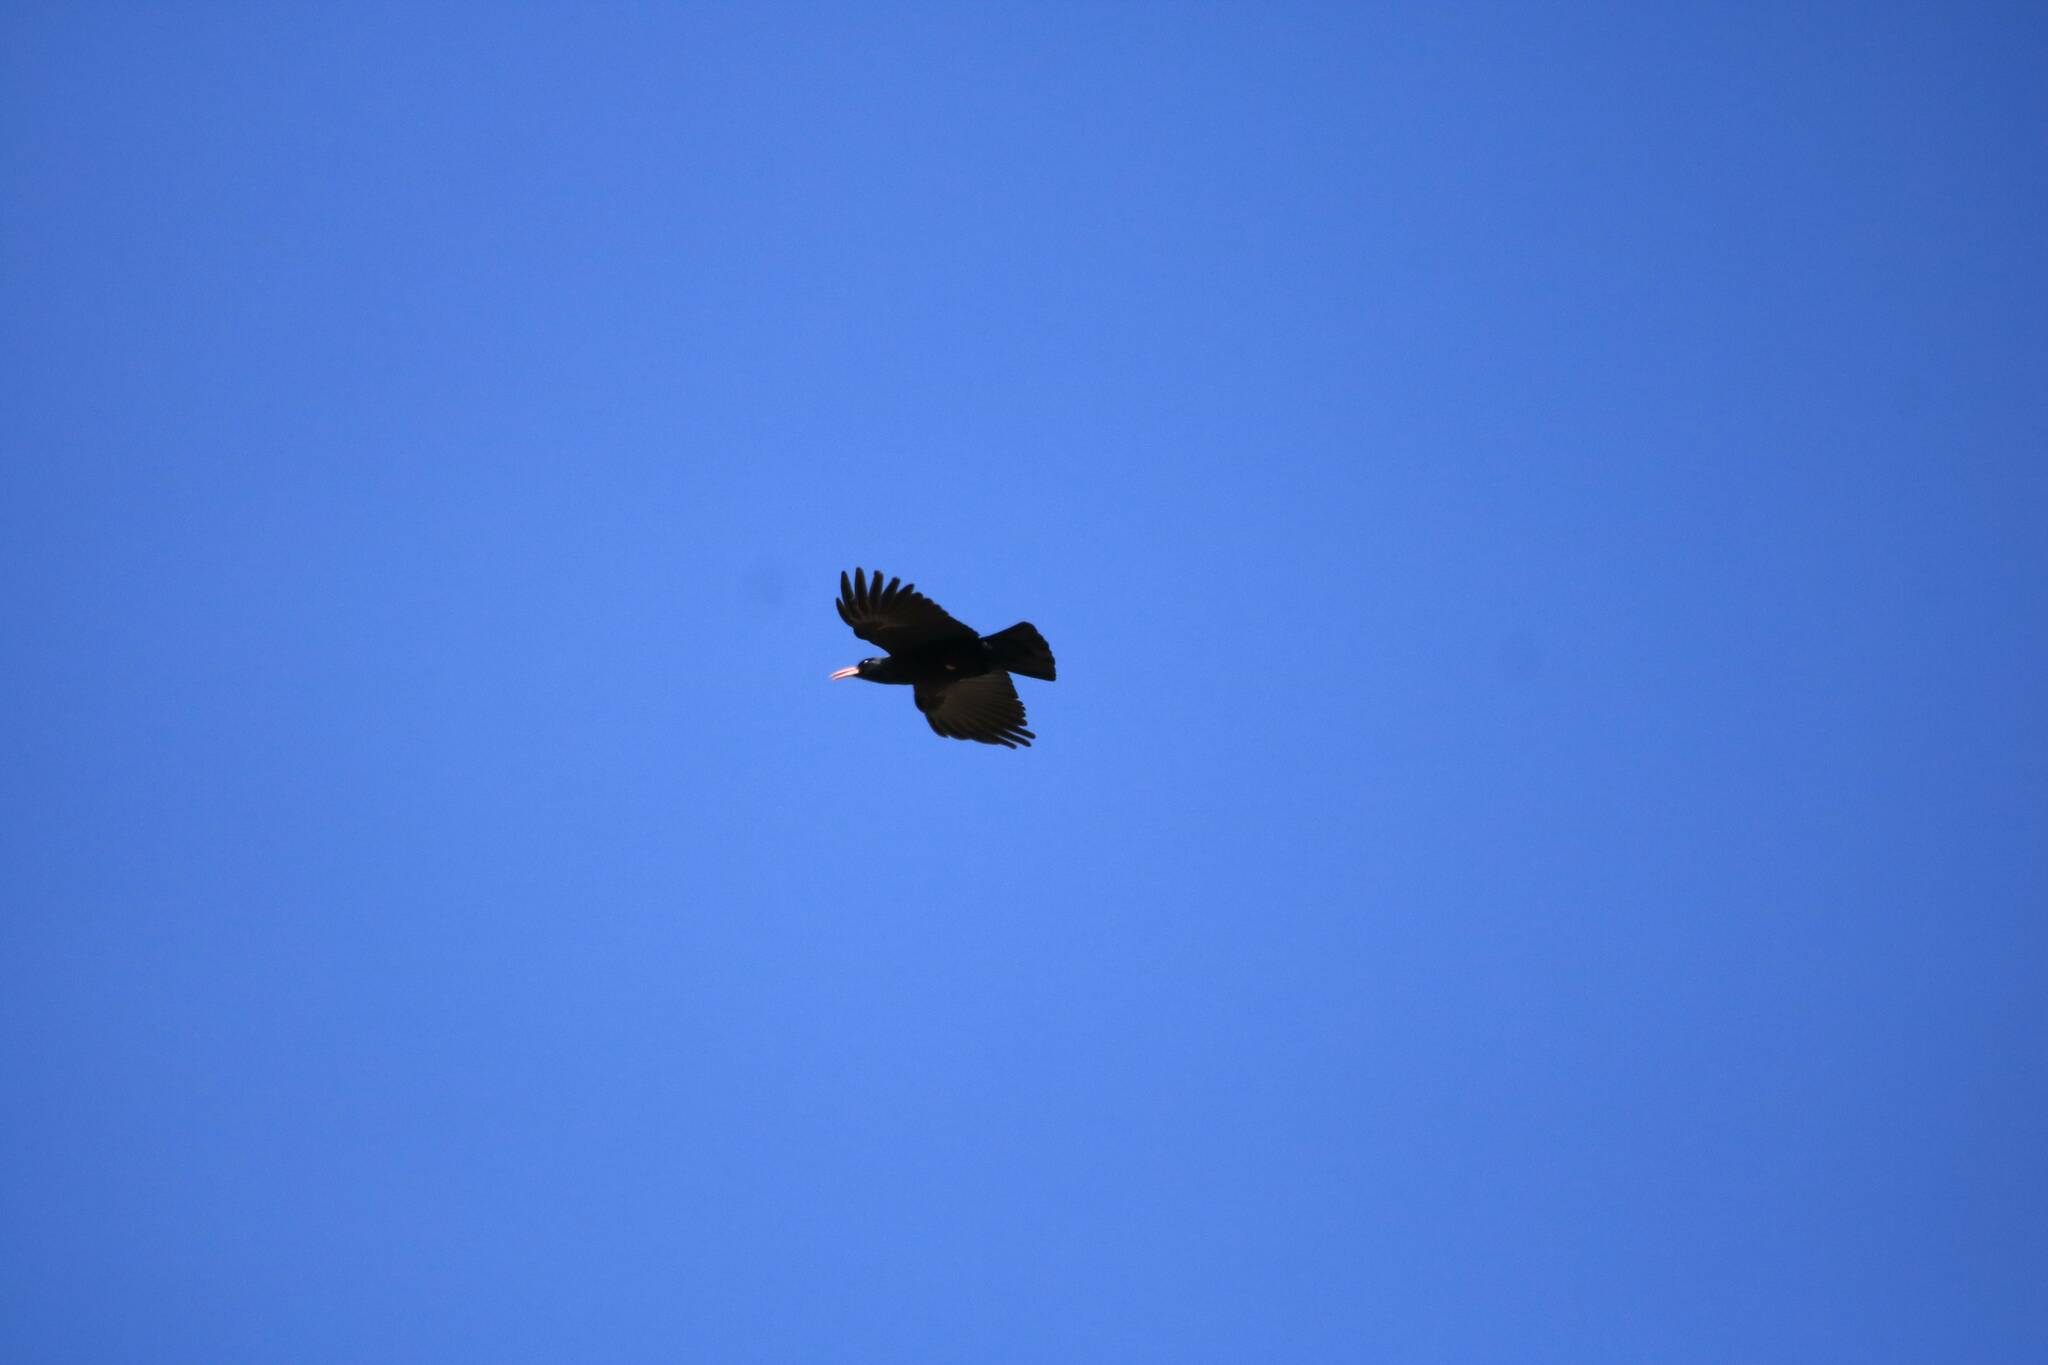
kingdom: Animalia
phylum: Chordata
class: Aves
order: Passeriformes
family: Corvidae
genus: Pyrrhocorax
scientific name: Pyrrhocorax pyrrhocorax
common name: Red-billed chough
